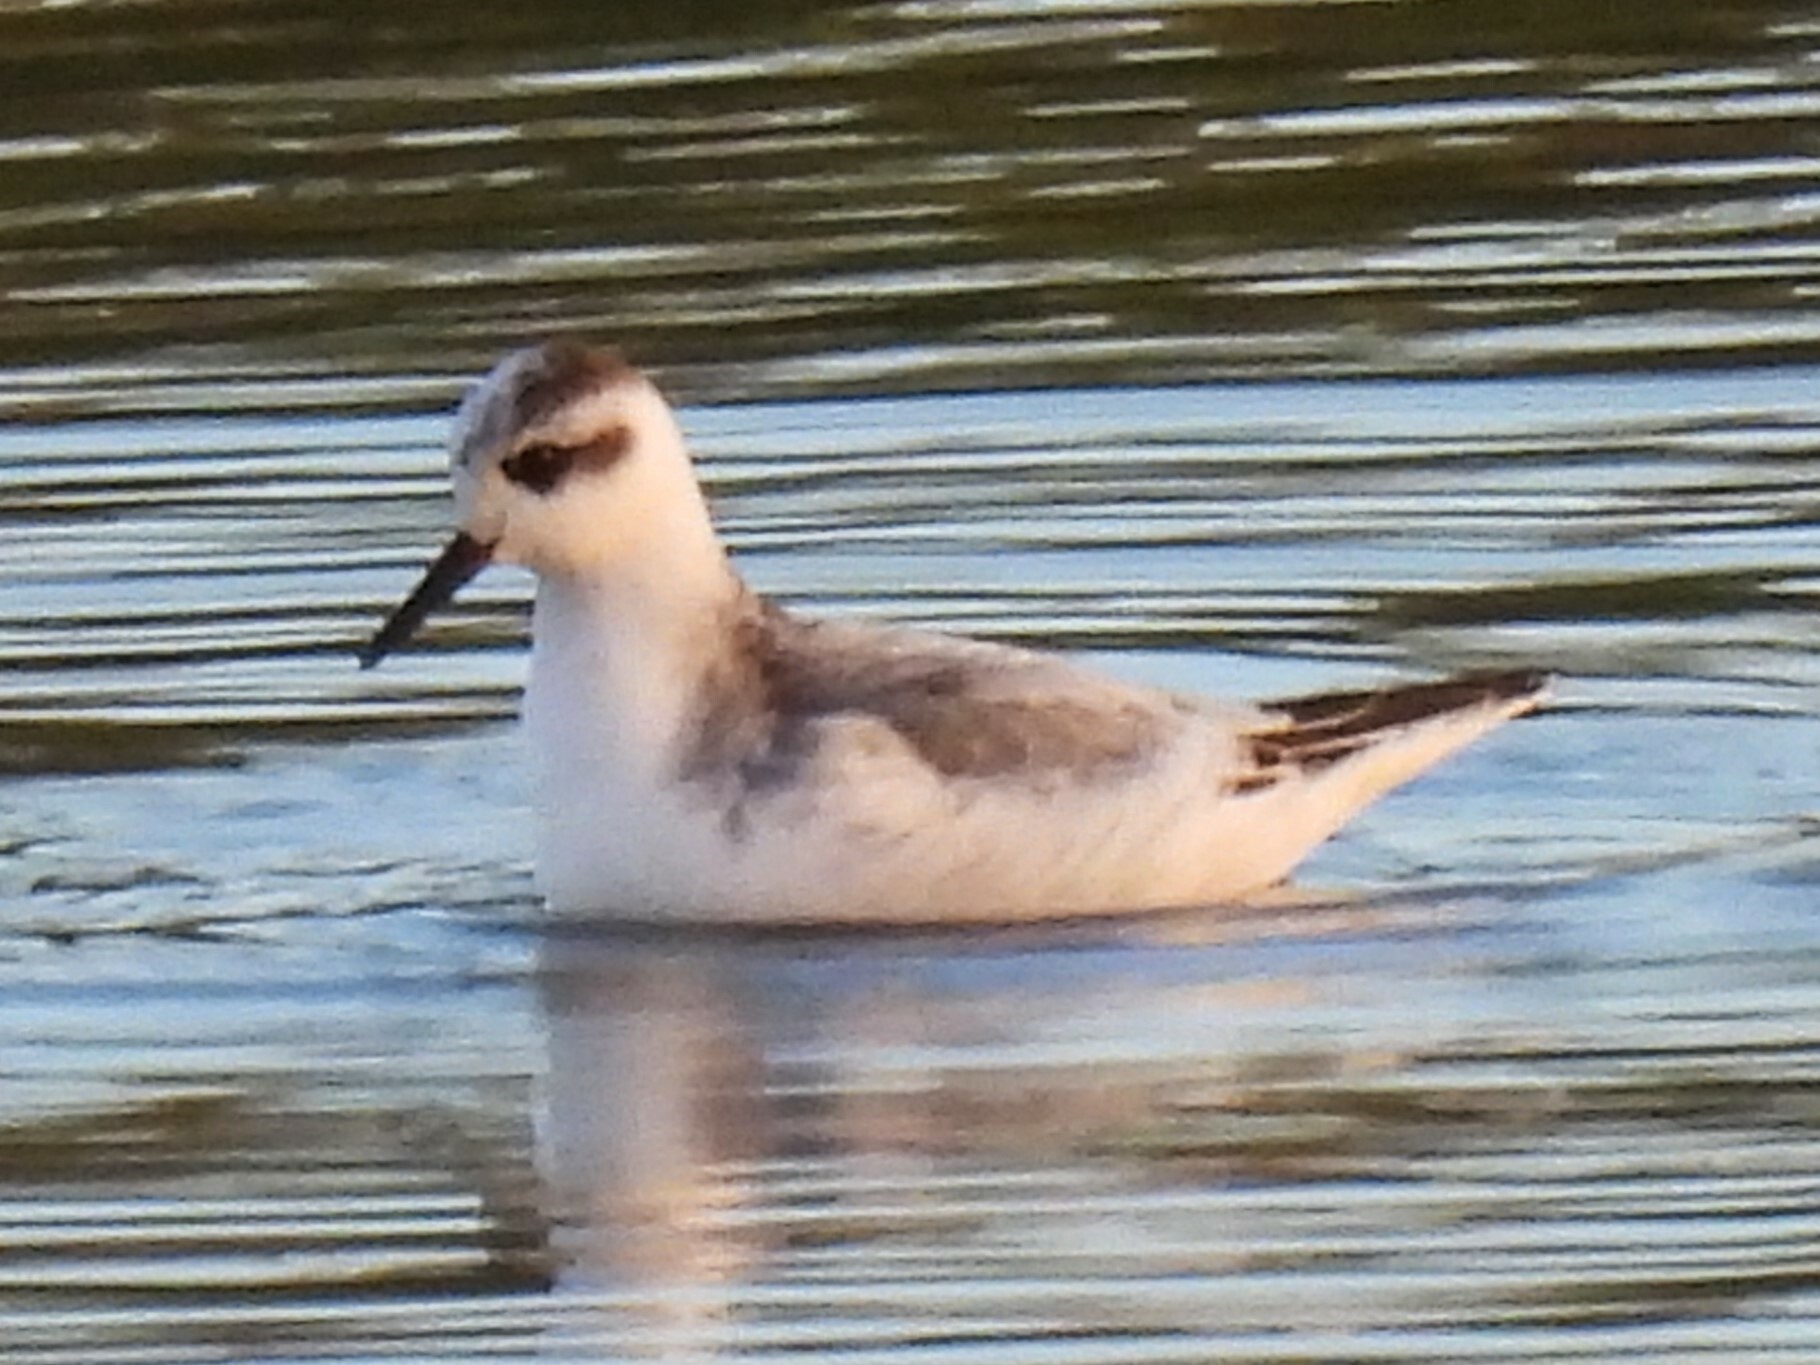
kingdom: Animalia
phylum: Chordata
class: Aves
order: Charadriiformes
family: Scolopacidae
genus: Phalaropus
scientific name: Phalaropus fulicarius
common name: Red phalarope
